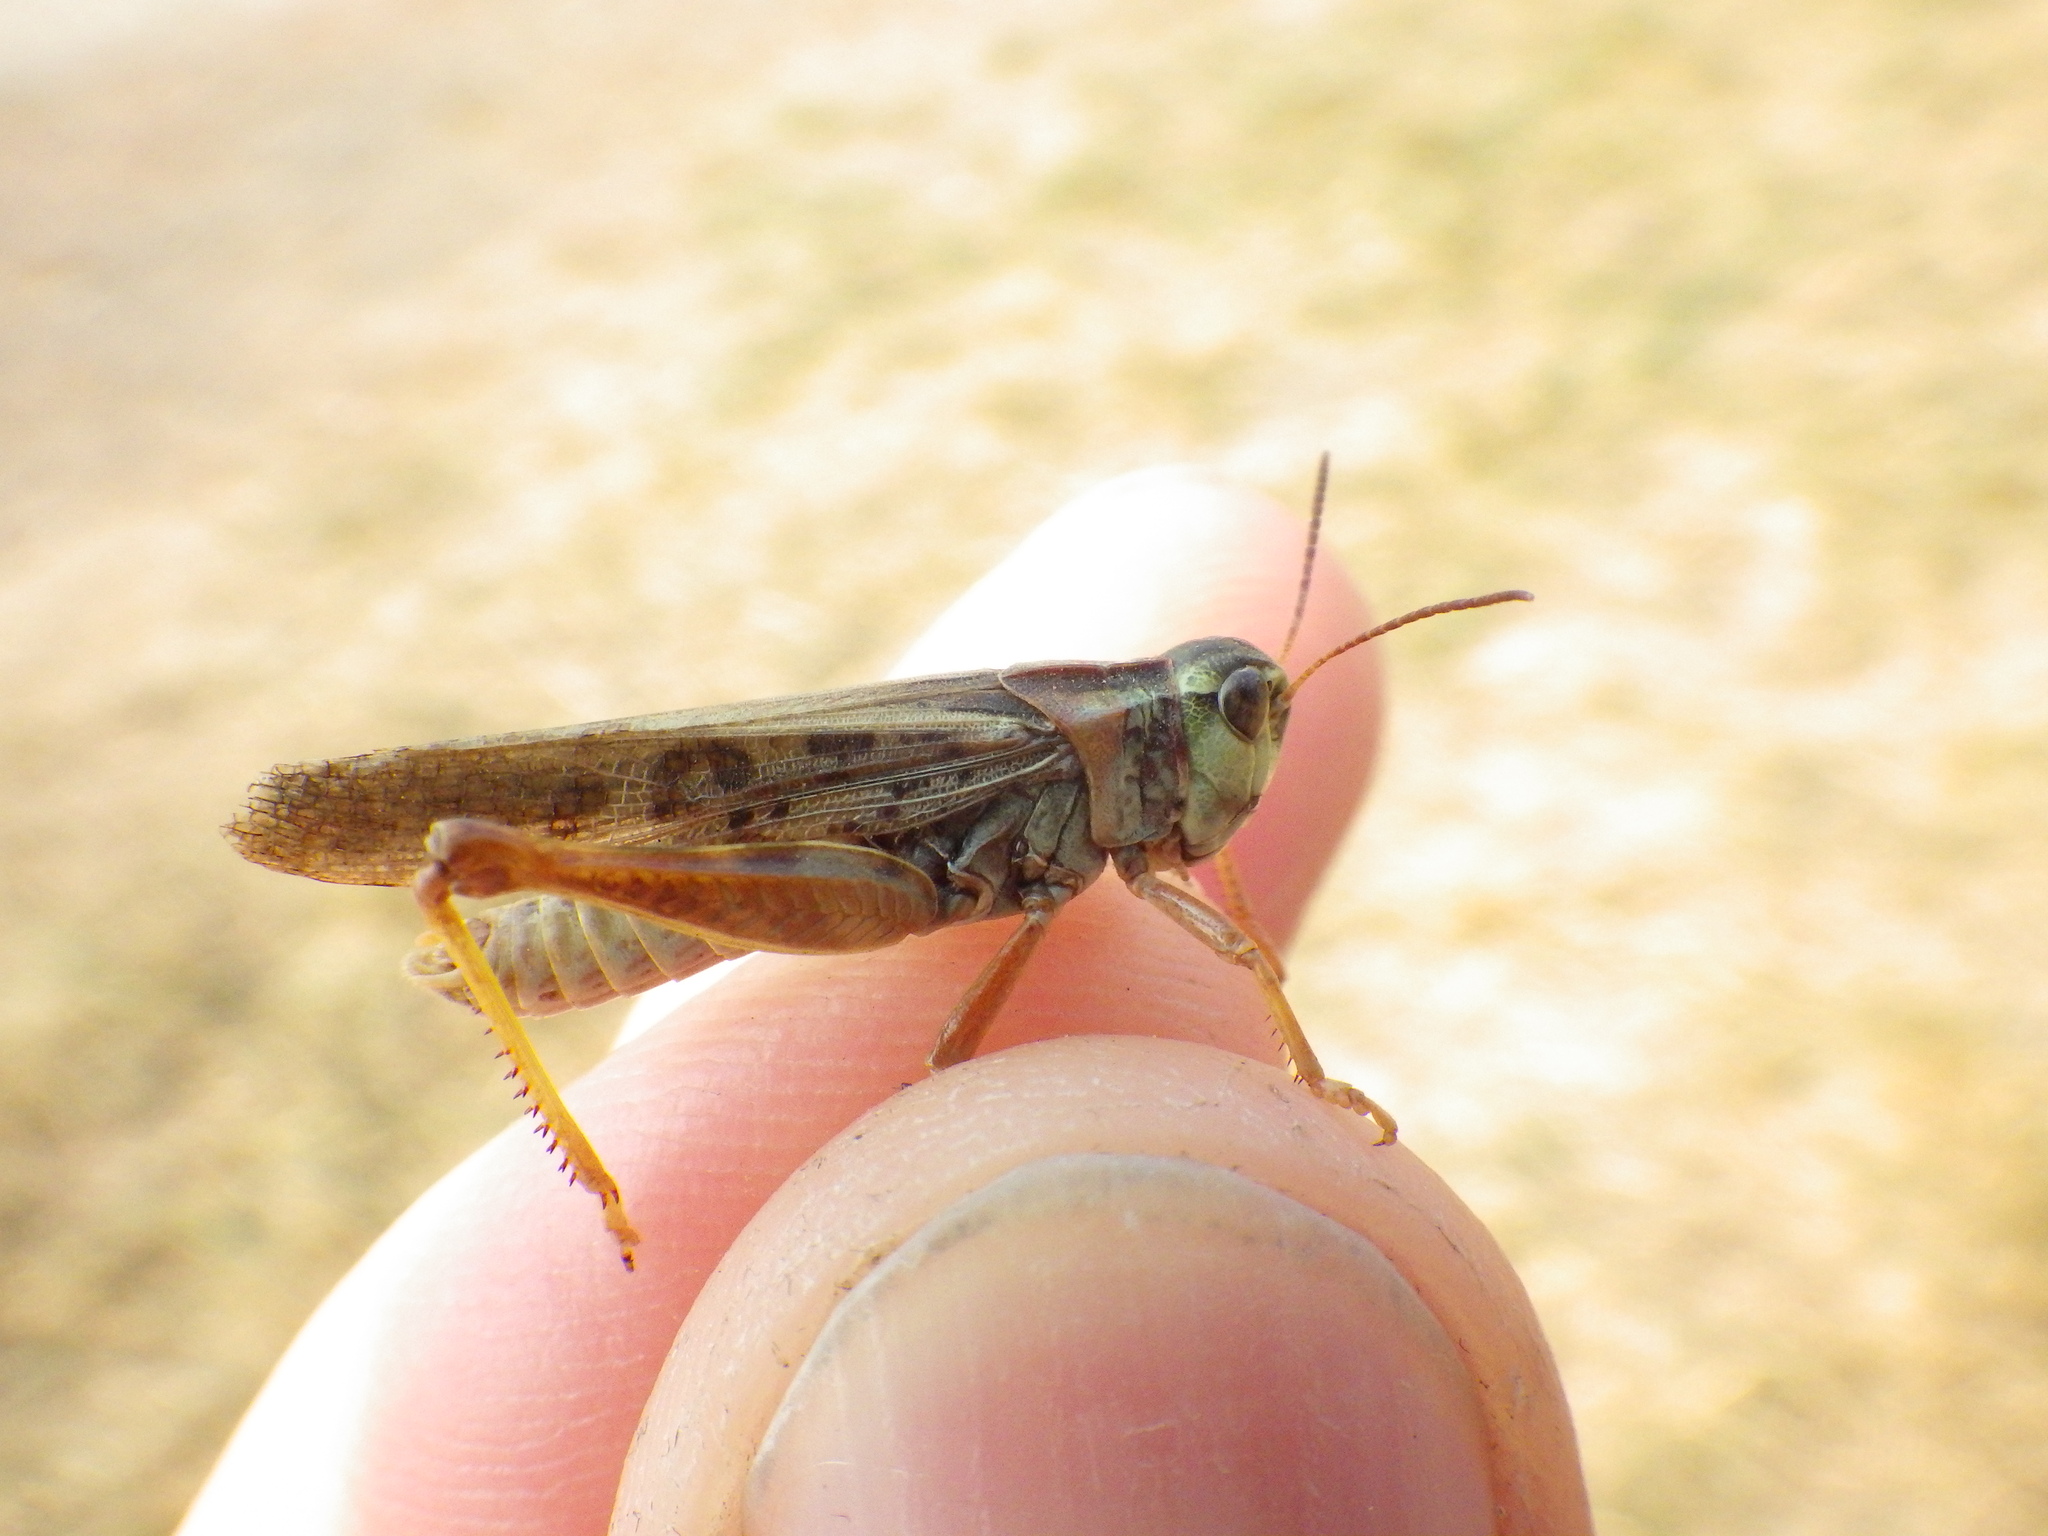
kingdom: Animalia
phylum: Arthropoda
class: Insecta
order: Orthoptera
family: Acrididae
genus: Camnula
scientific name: Camnula pellucida
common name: Clear-winged grasshopper
